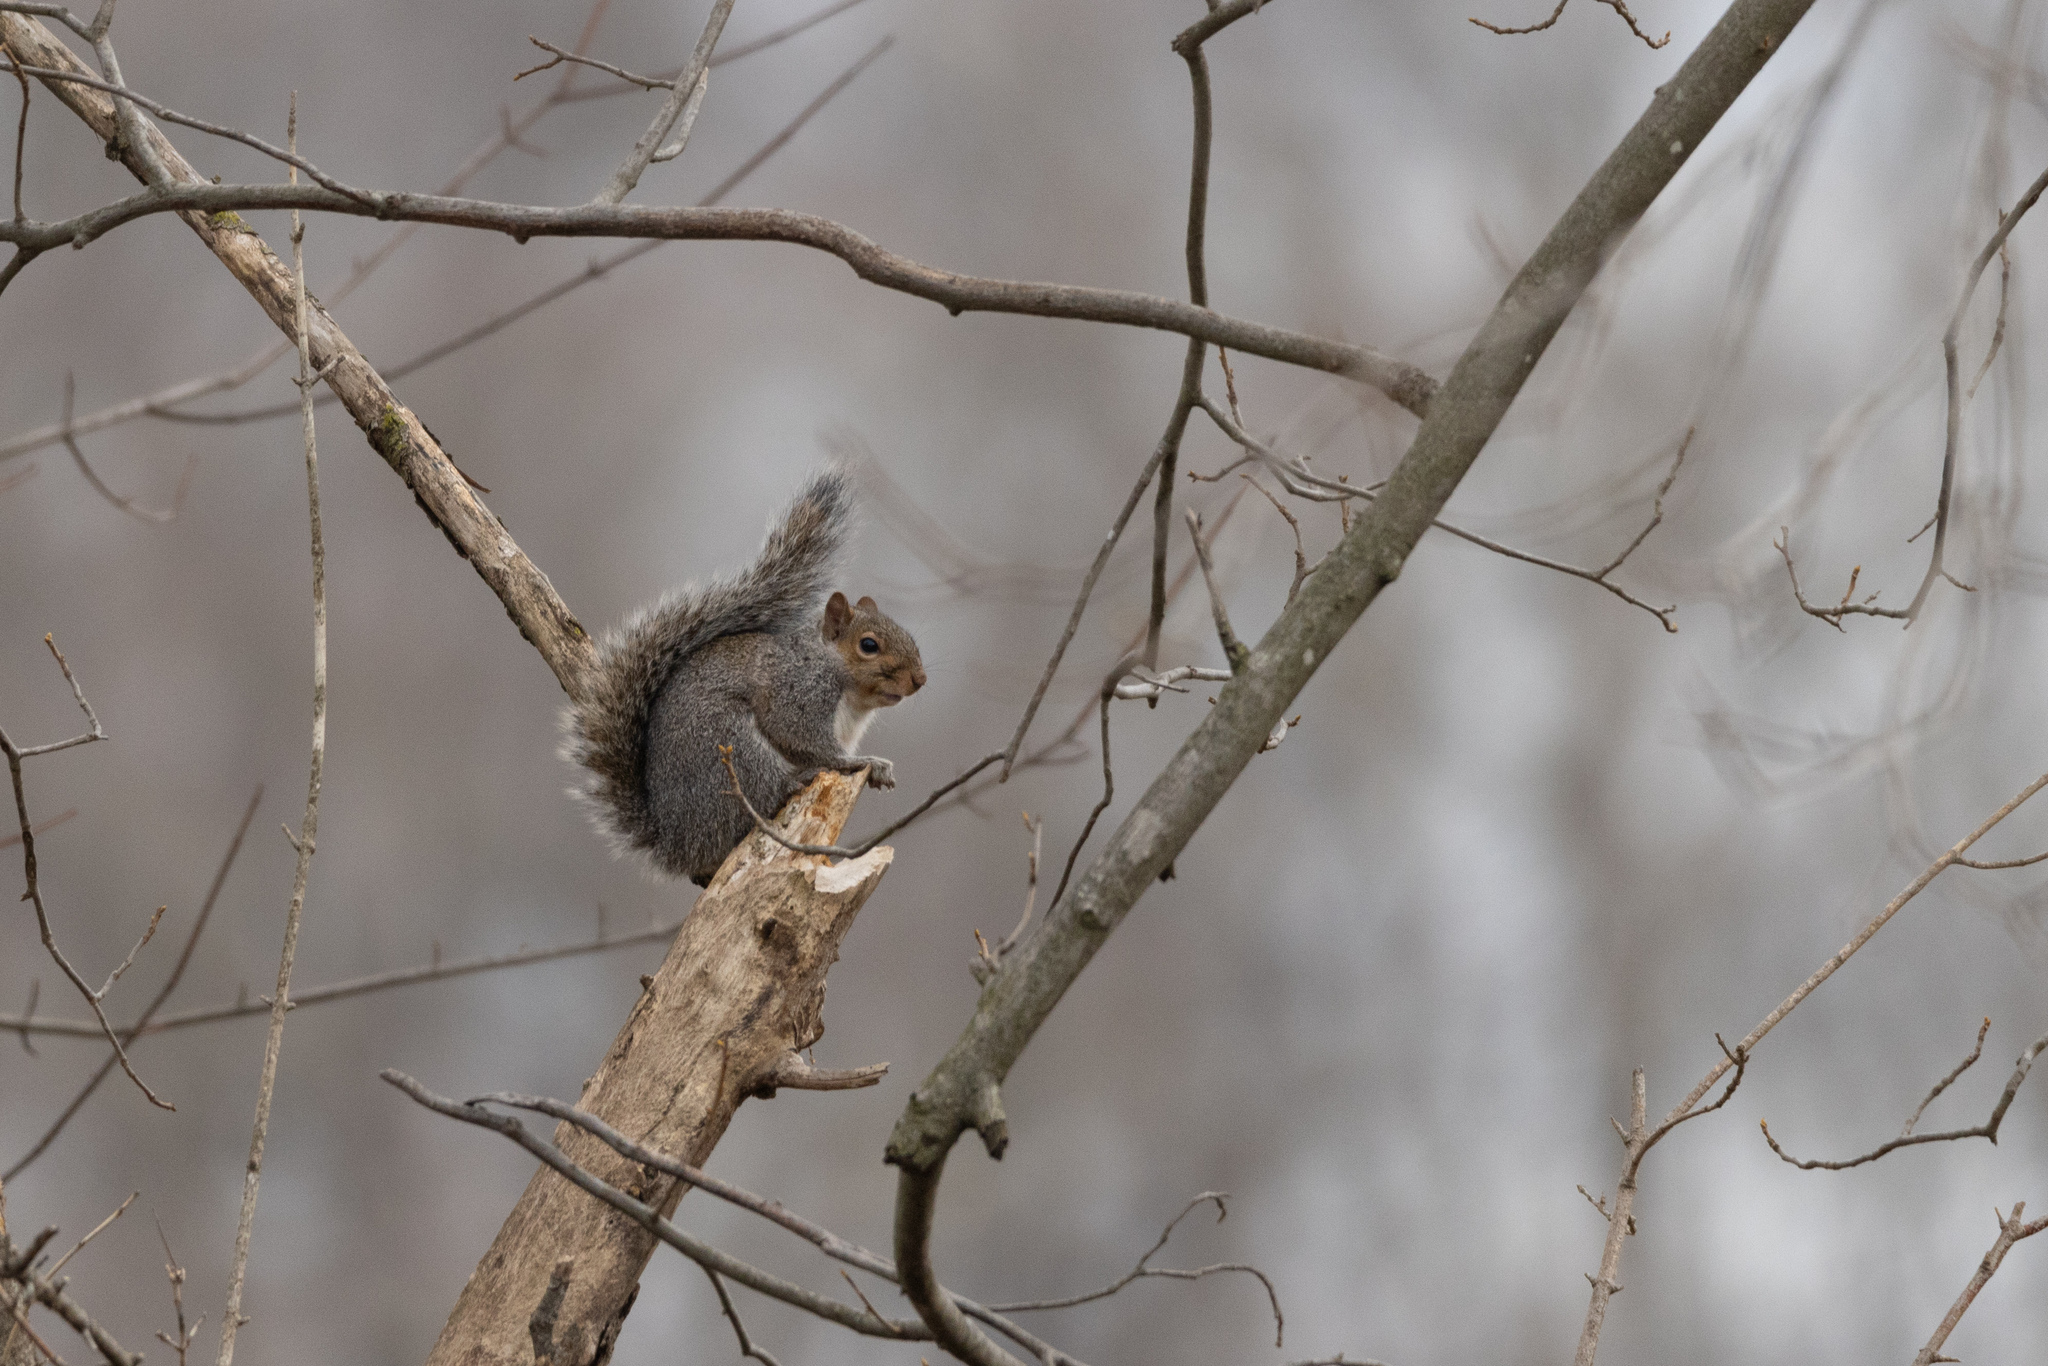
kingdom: Animalia
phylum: Chordata
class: Mammalia
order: Rodentia
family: Sciuridae
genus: Sciurus
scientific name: Sciurus carolinensis
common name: Eastern gray squirrel
